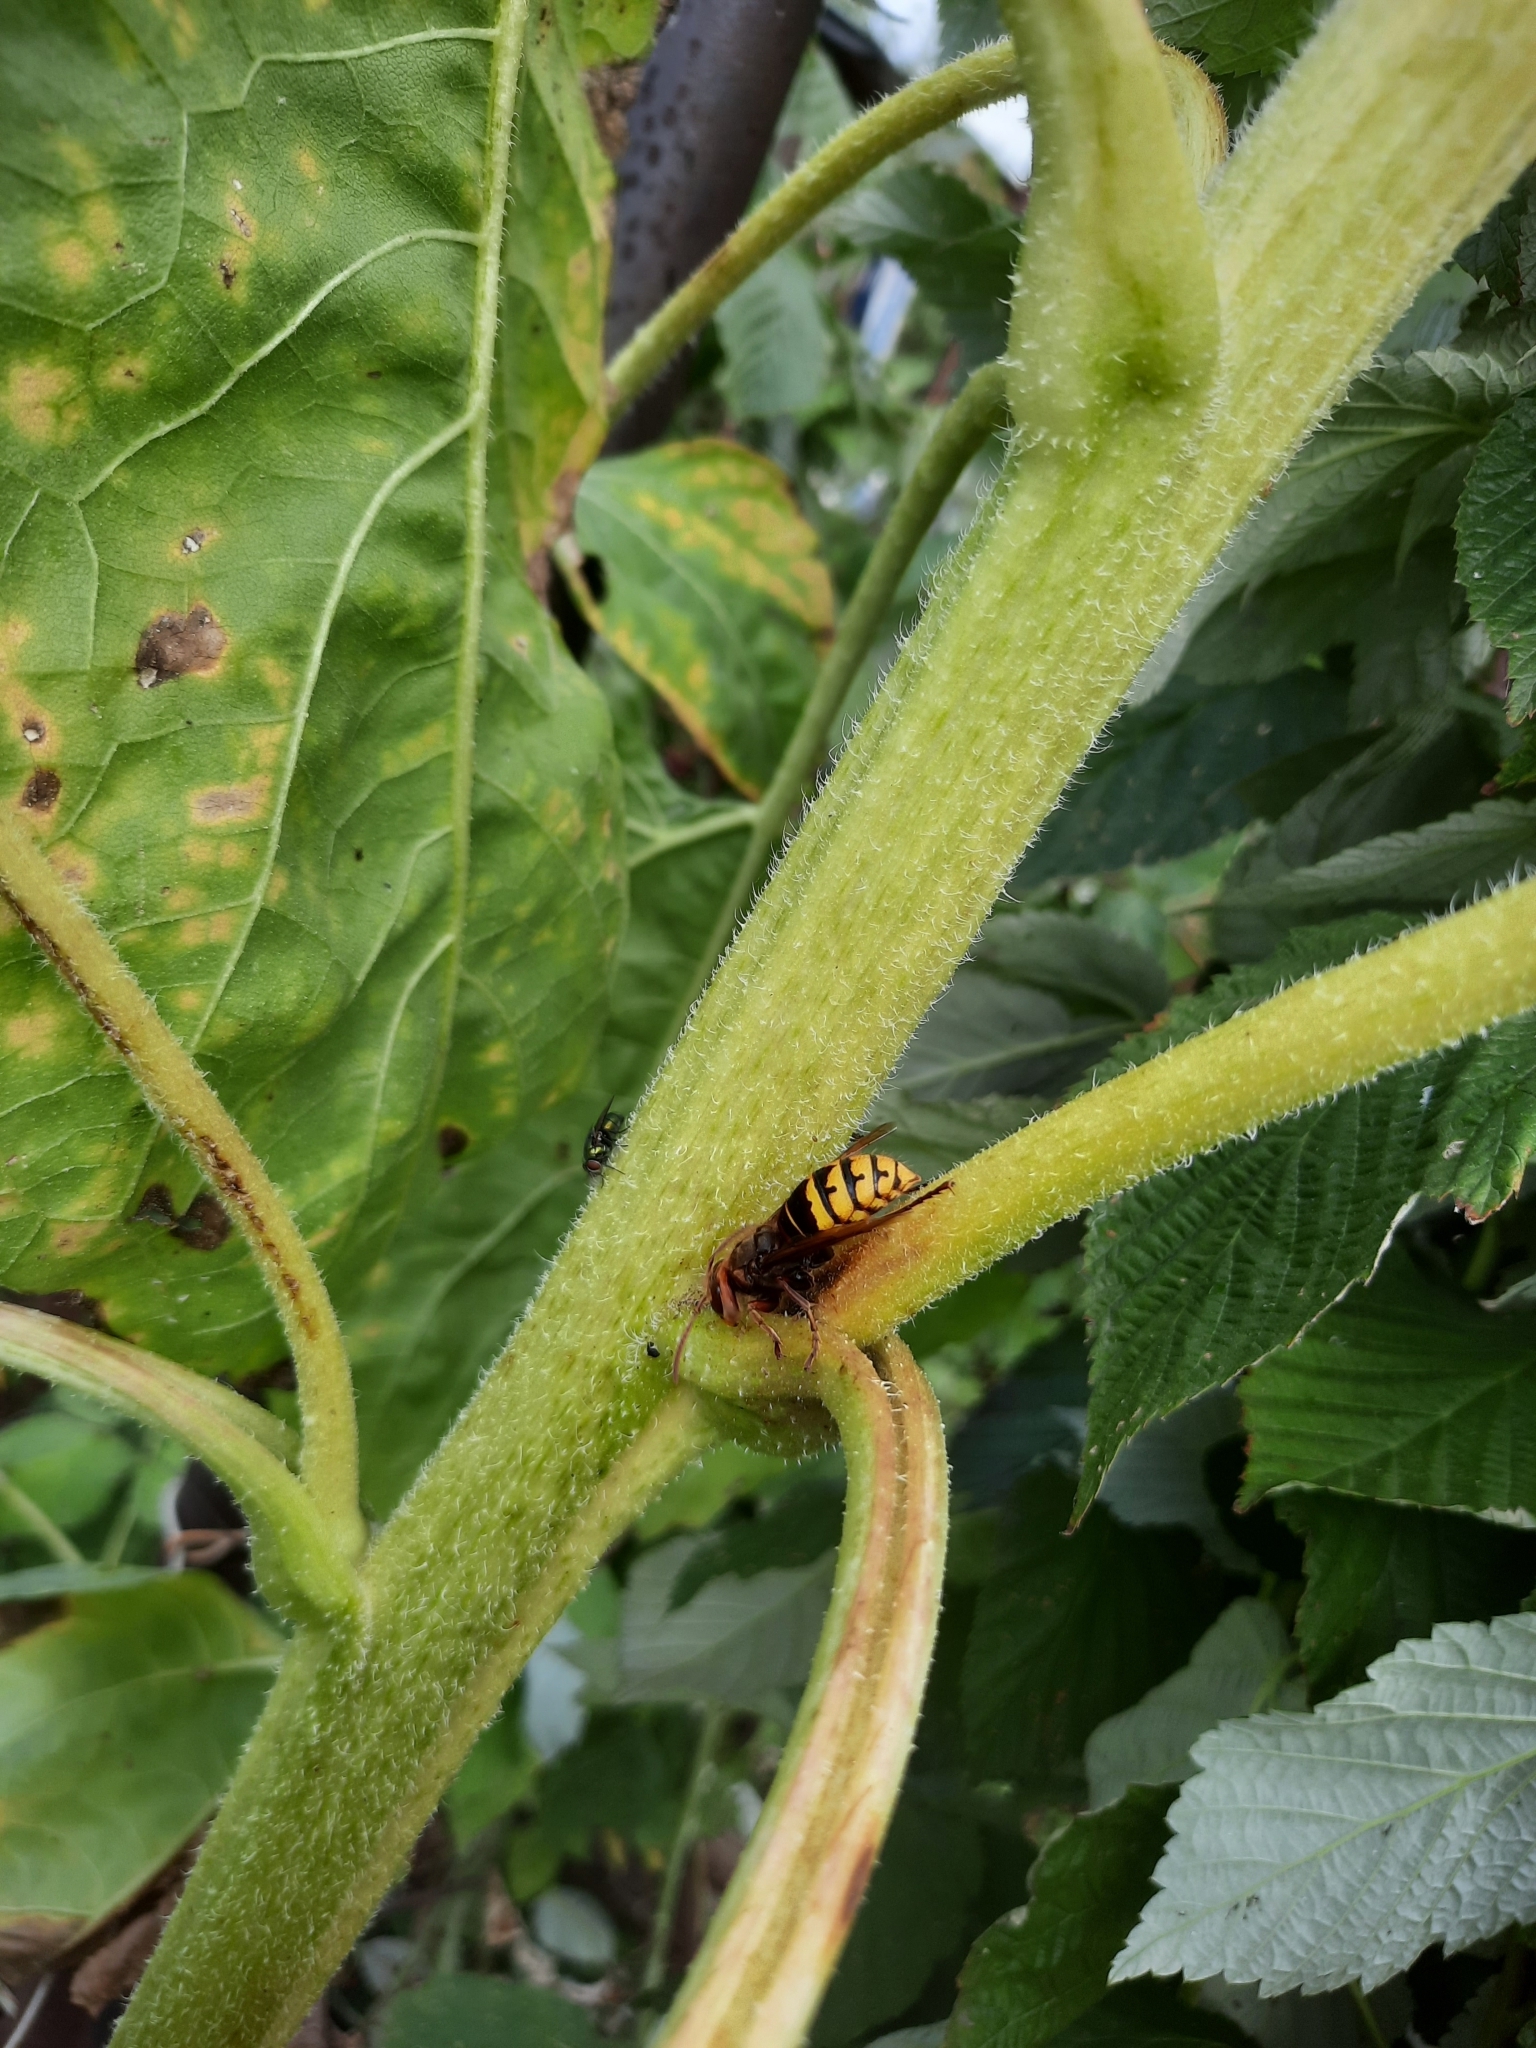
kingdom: Animalia
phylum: Arthropoda
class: Insecta
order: Hymenoptera
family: Vespidae
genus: Vespa
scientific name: Vespa crabro
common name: Hornet
